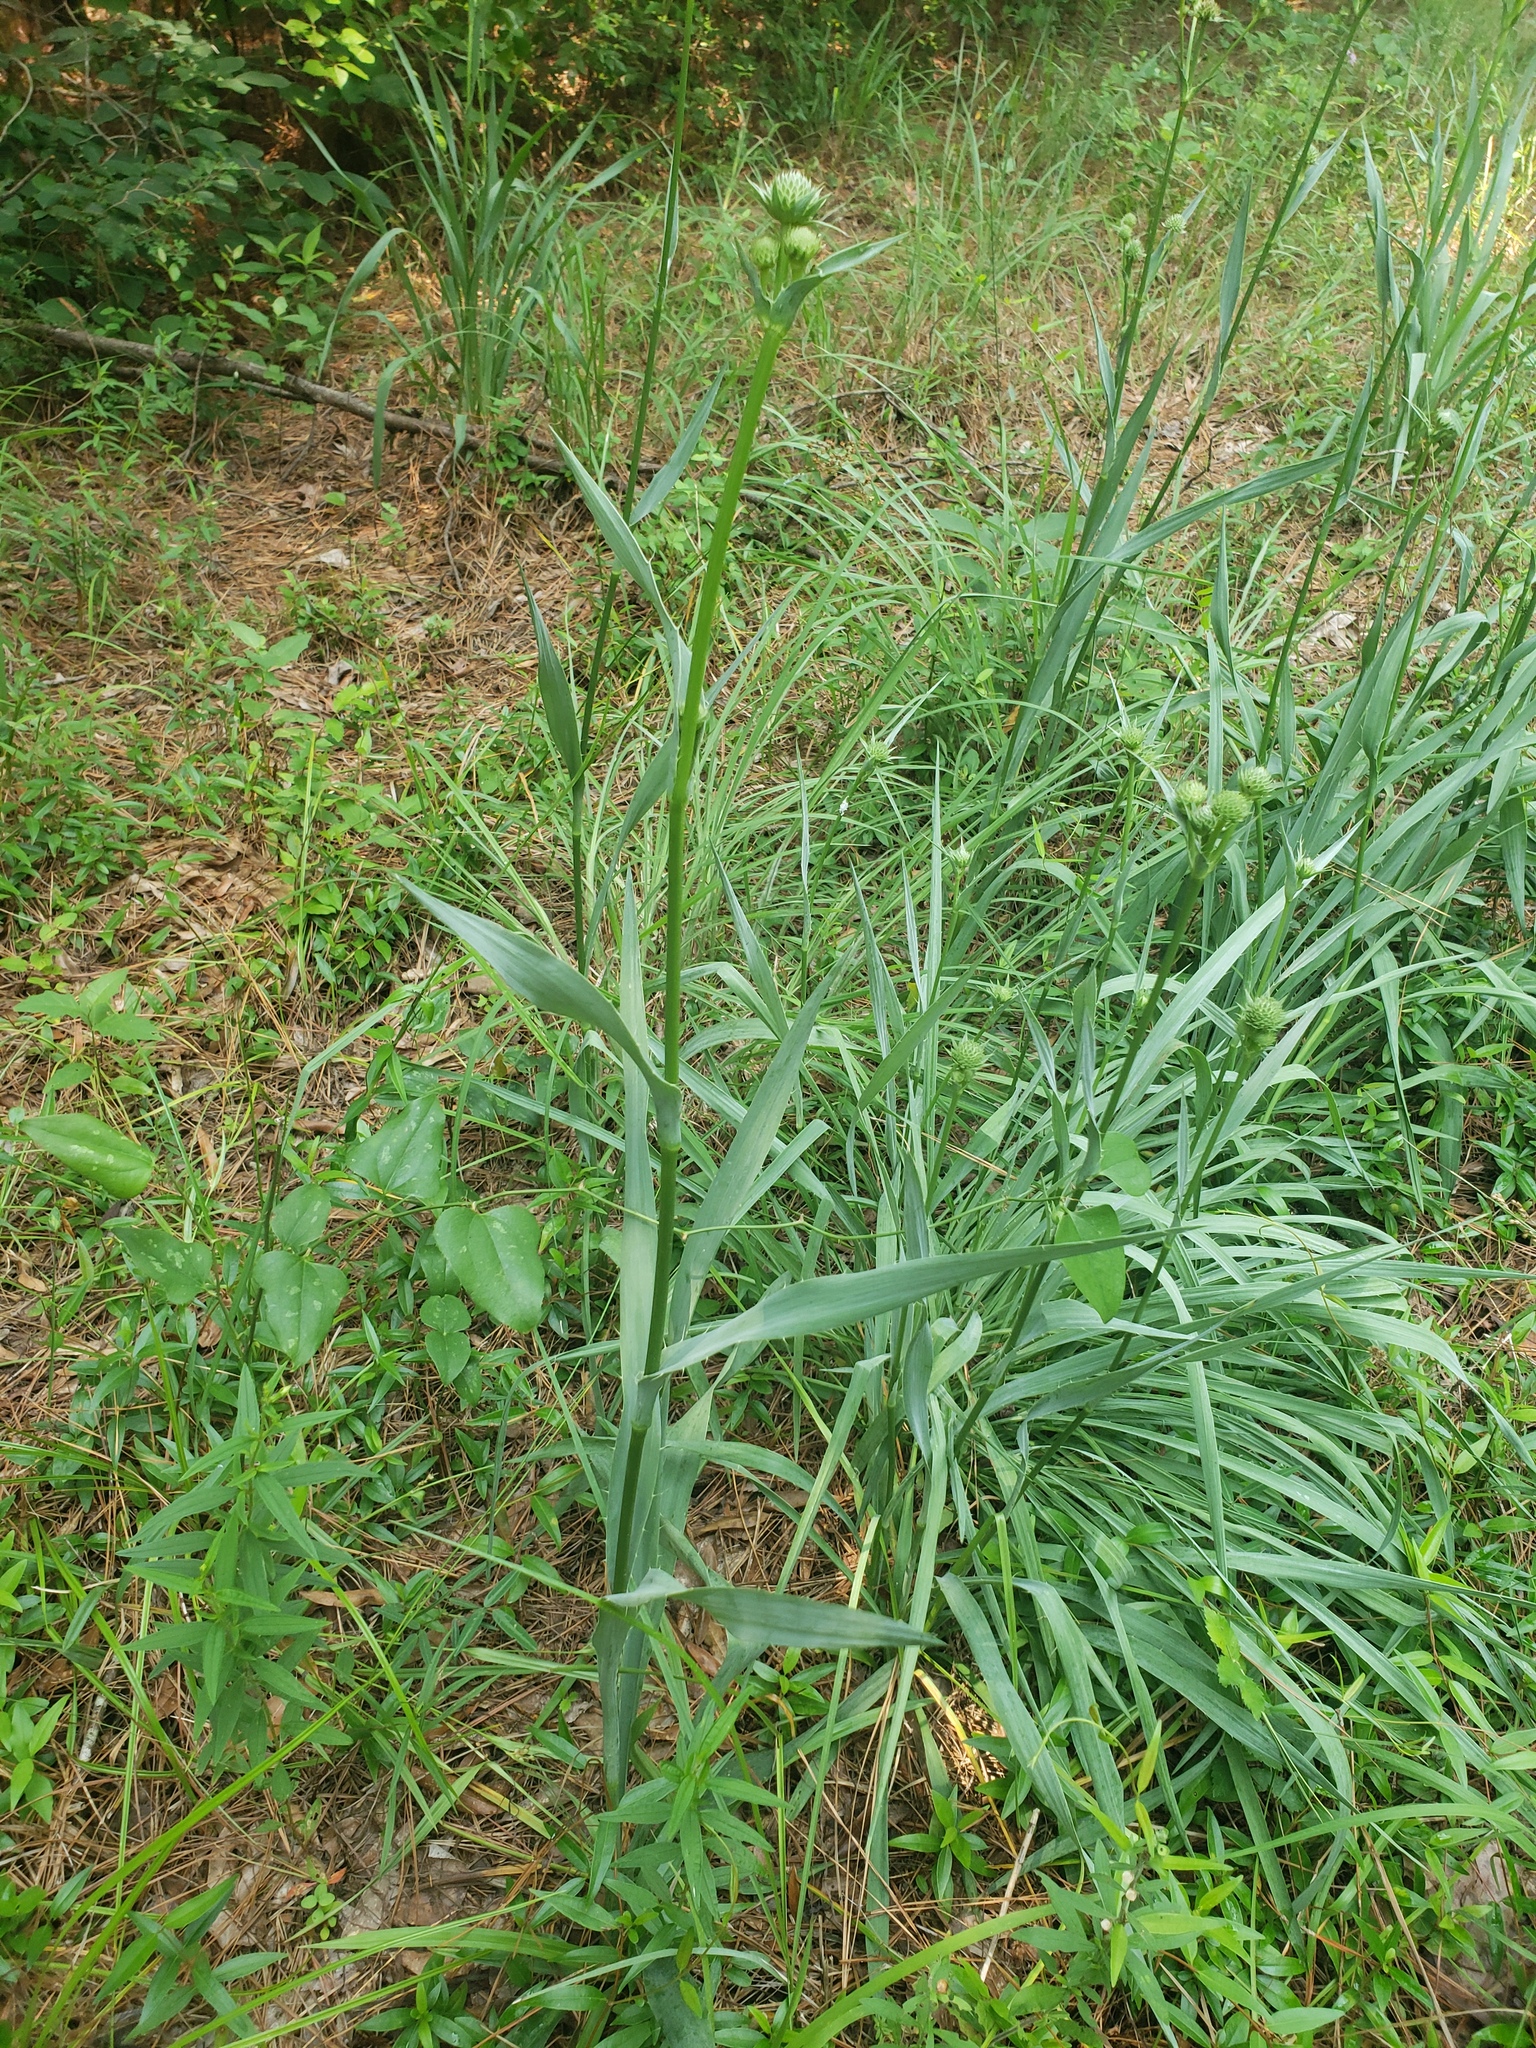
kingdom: Plantae
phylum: Tracheophyta
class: Magnoliopsida
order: Apiales
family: Apiaceae
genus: Eryngium
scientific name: Eryngium yuccifolium
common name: Button eryngo
